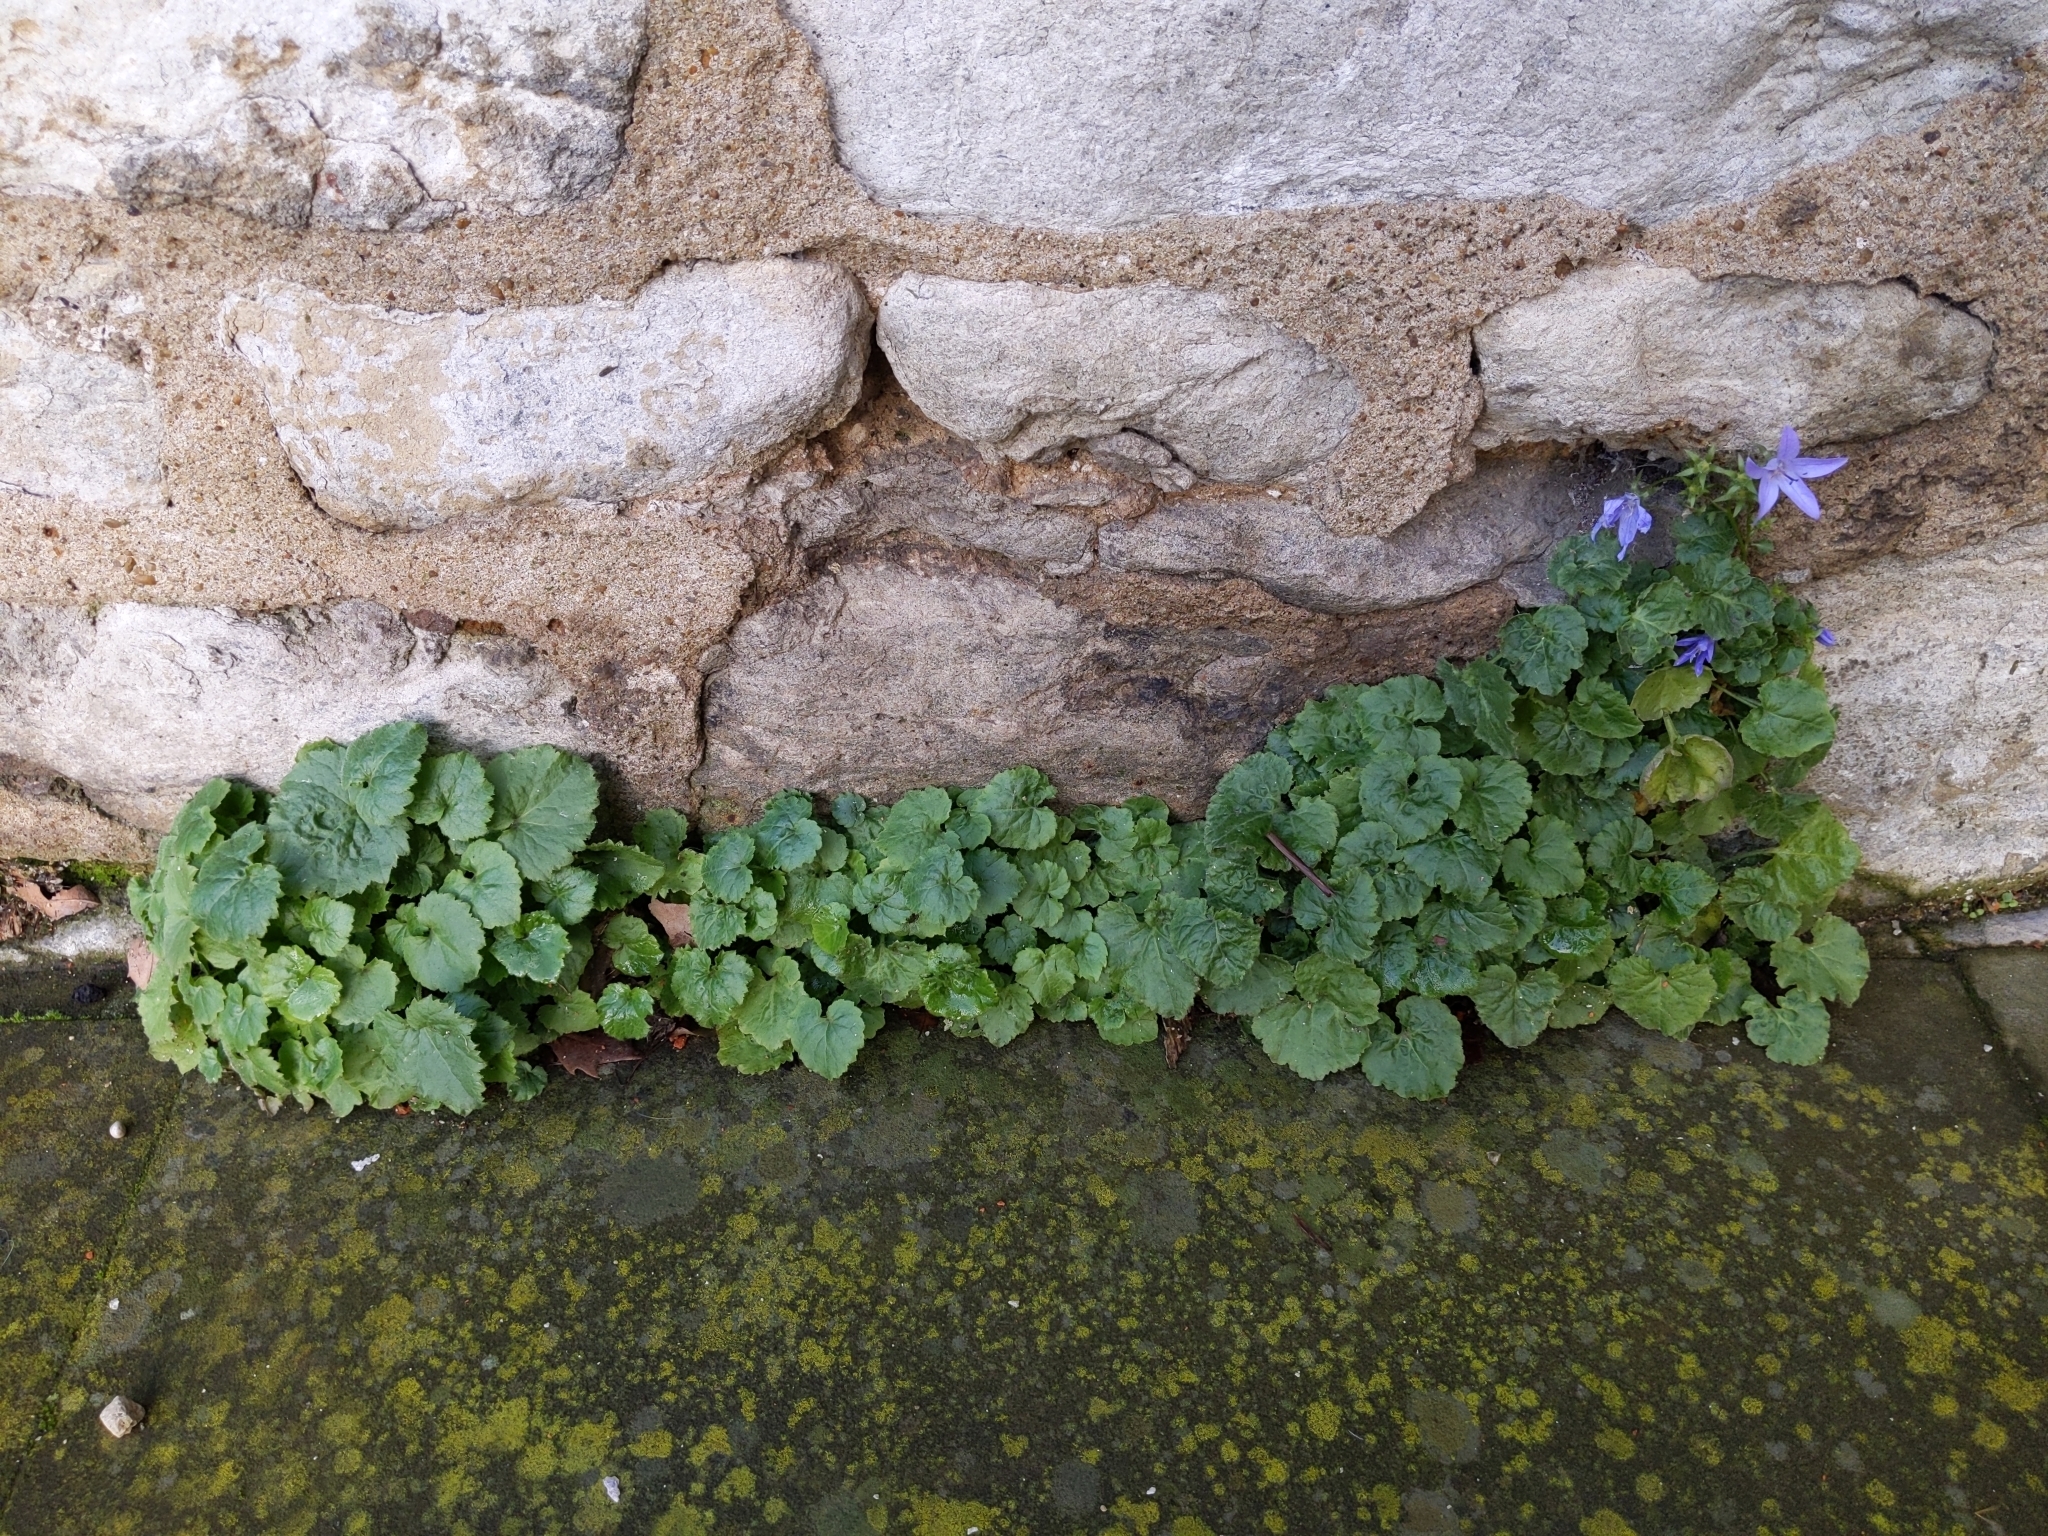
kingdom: Plantae
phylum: Tracheophyta
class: Magnoliopsida
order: Asterales
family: Campanulaceae
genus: Campanula
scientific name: Campanula poscharskyana
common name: Trailing bellflower
